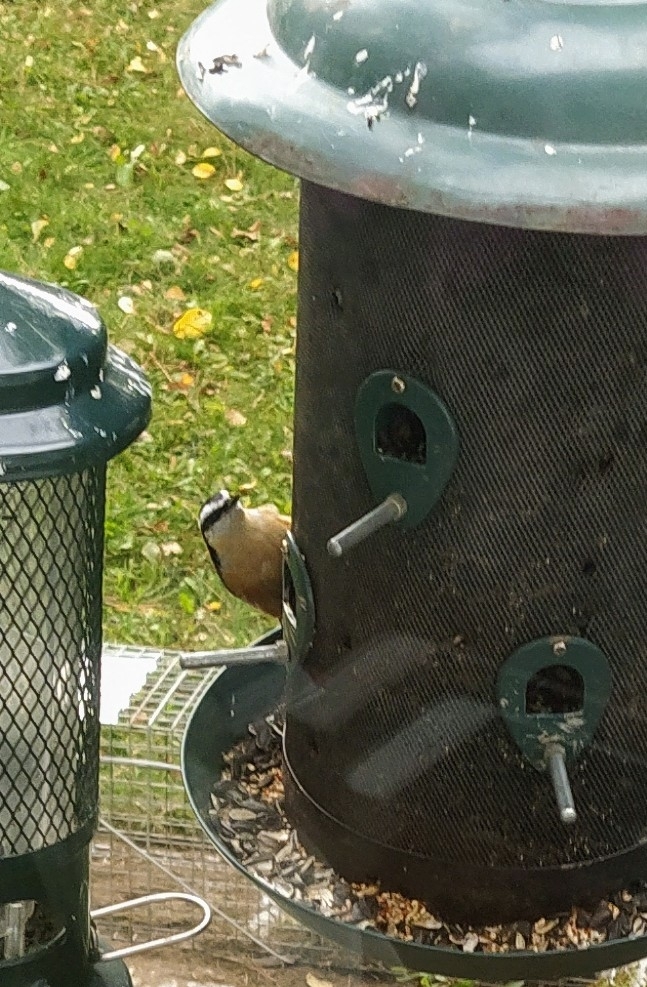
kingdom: Animalia
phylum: Chordata
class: Aves
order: Passeriformes
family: Sittidae
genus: Sitta
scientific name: Sitta canadensis
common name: Red-breasted nuthatch
